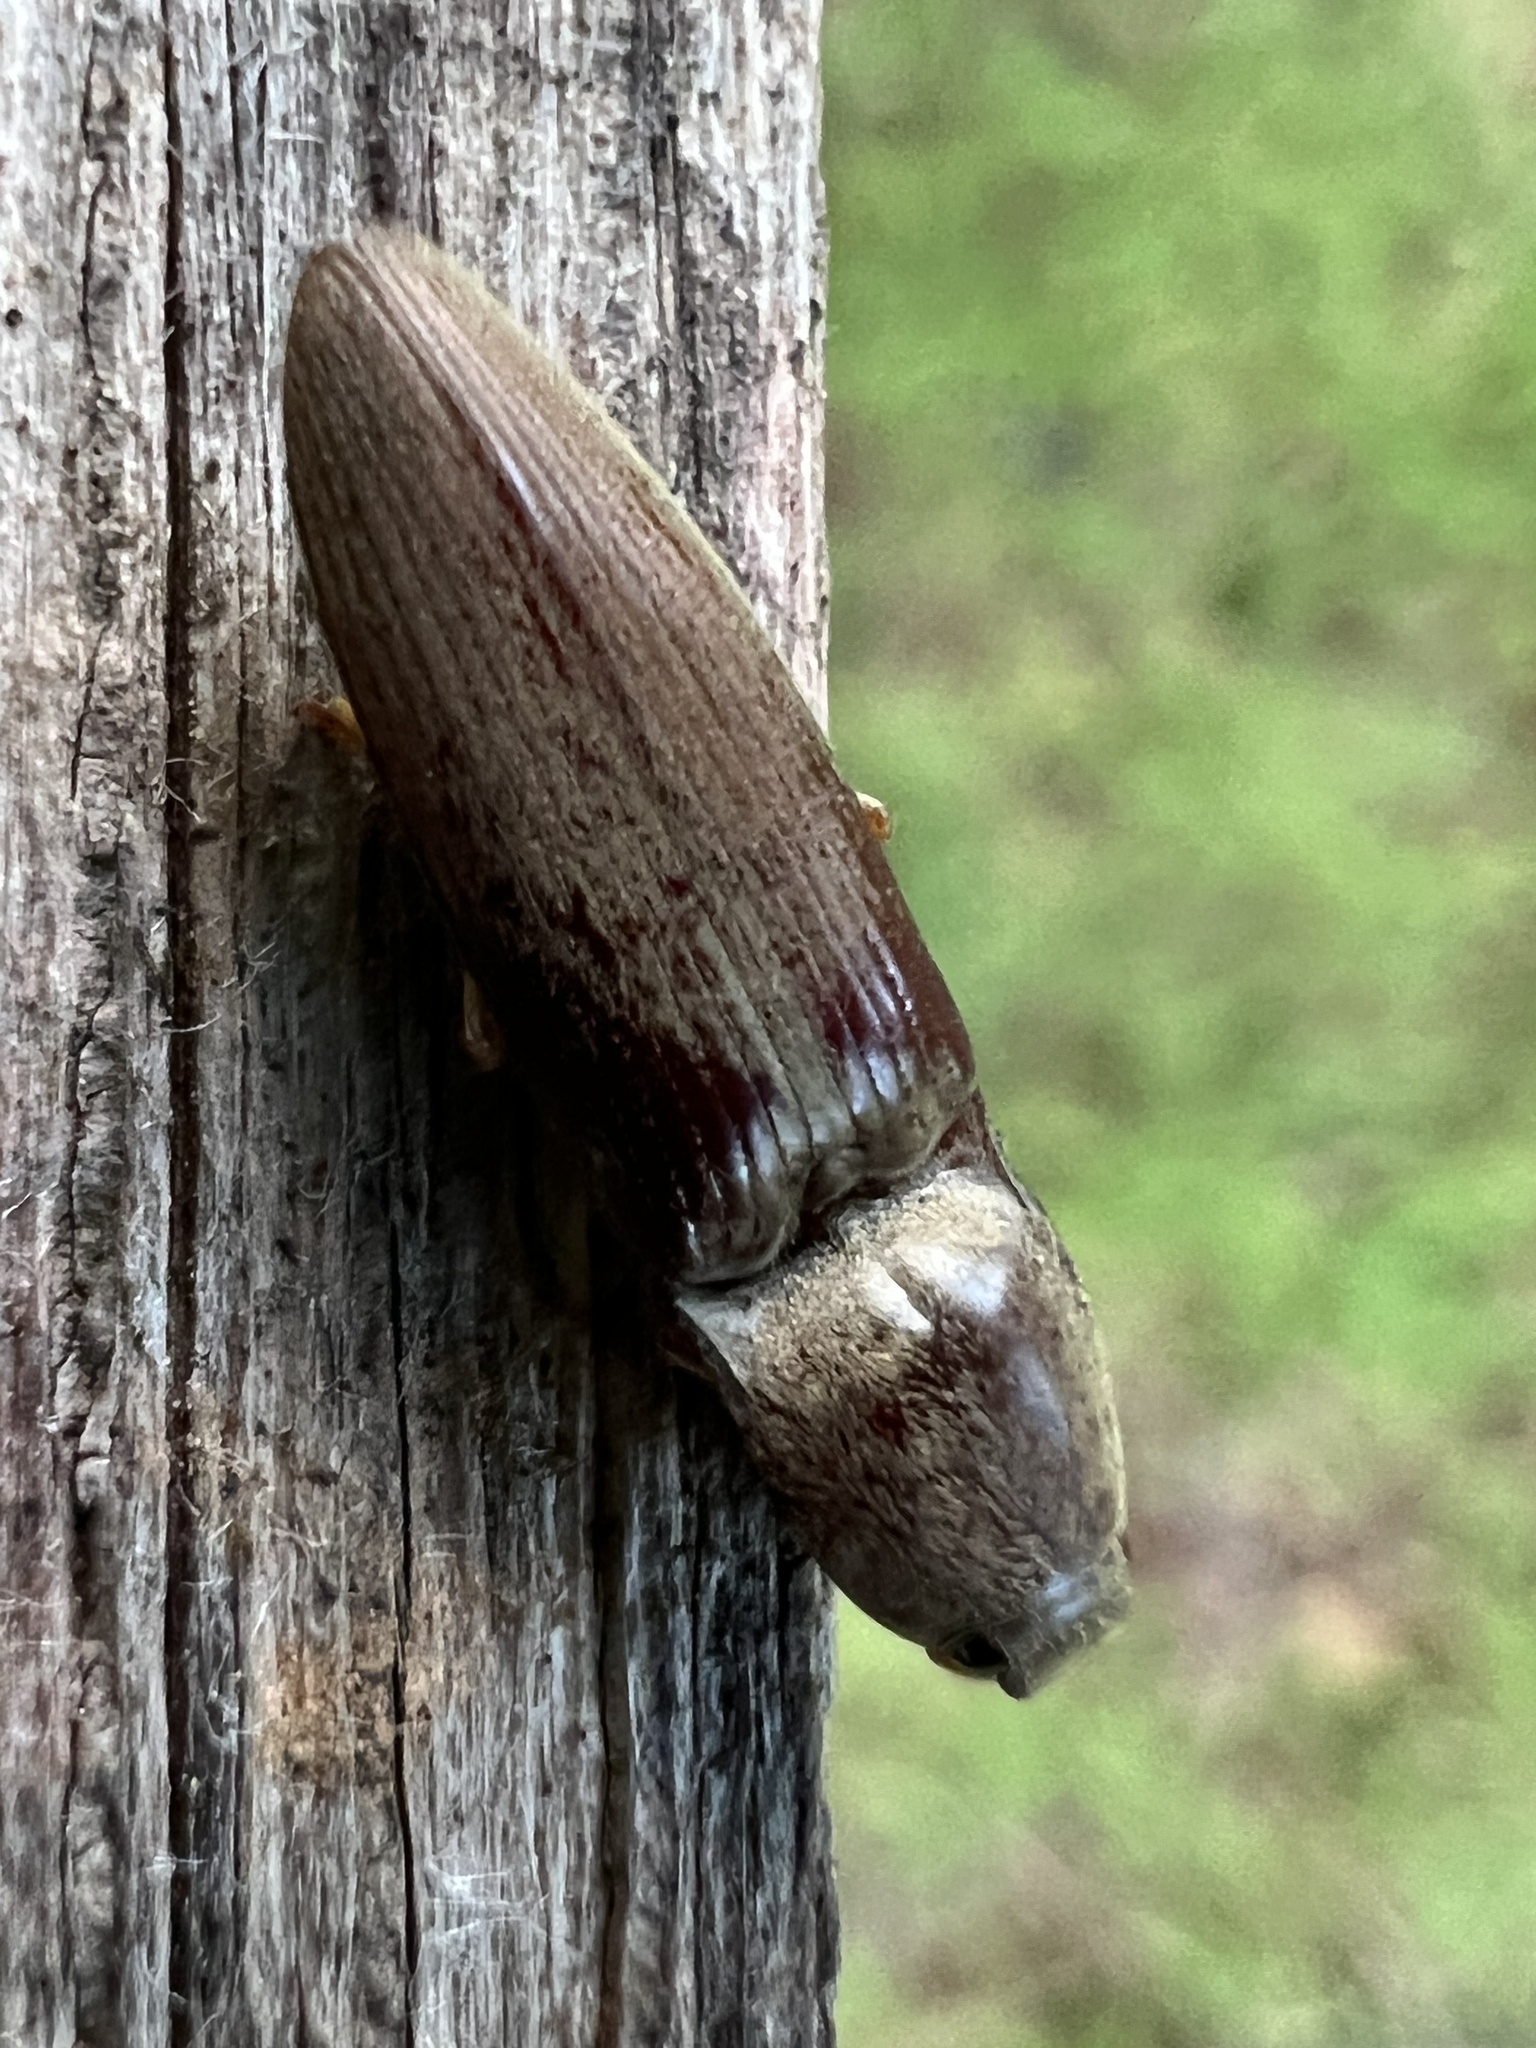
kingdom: Animalia
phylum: Arthropoda
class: Insecta
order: Coleoptera
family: Elateridae
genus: Monocrepidius
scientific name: Monocrepidius lividus
